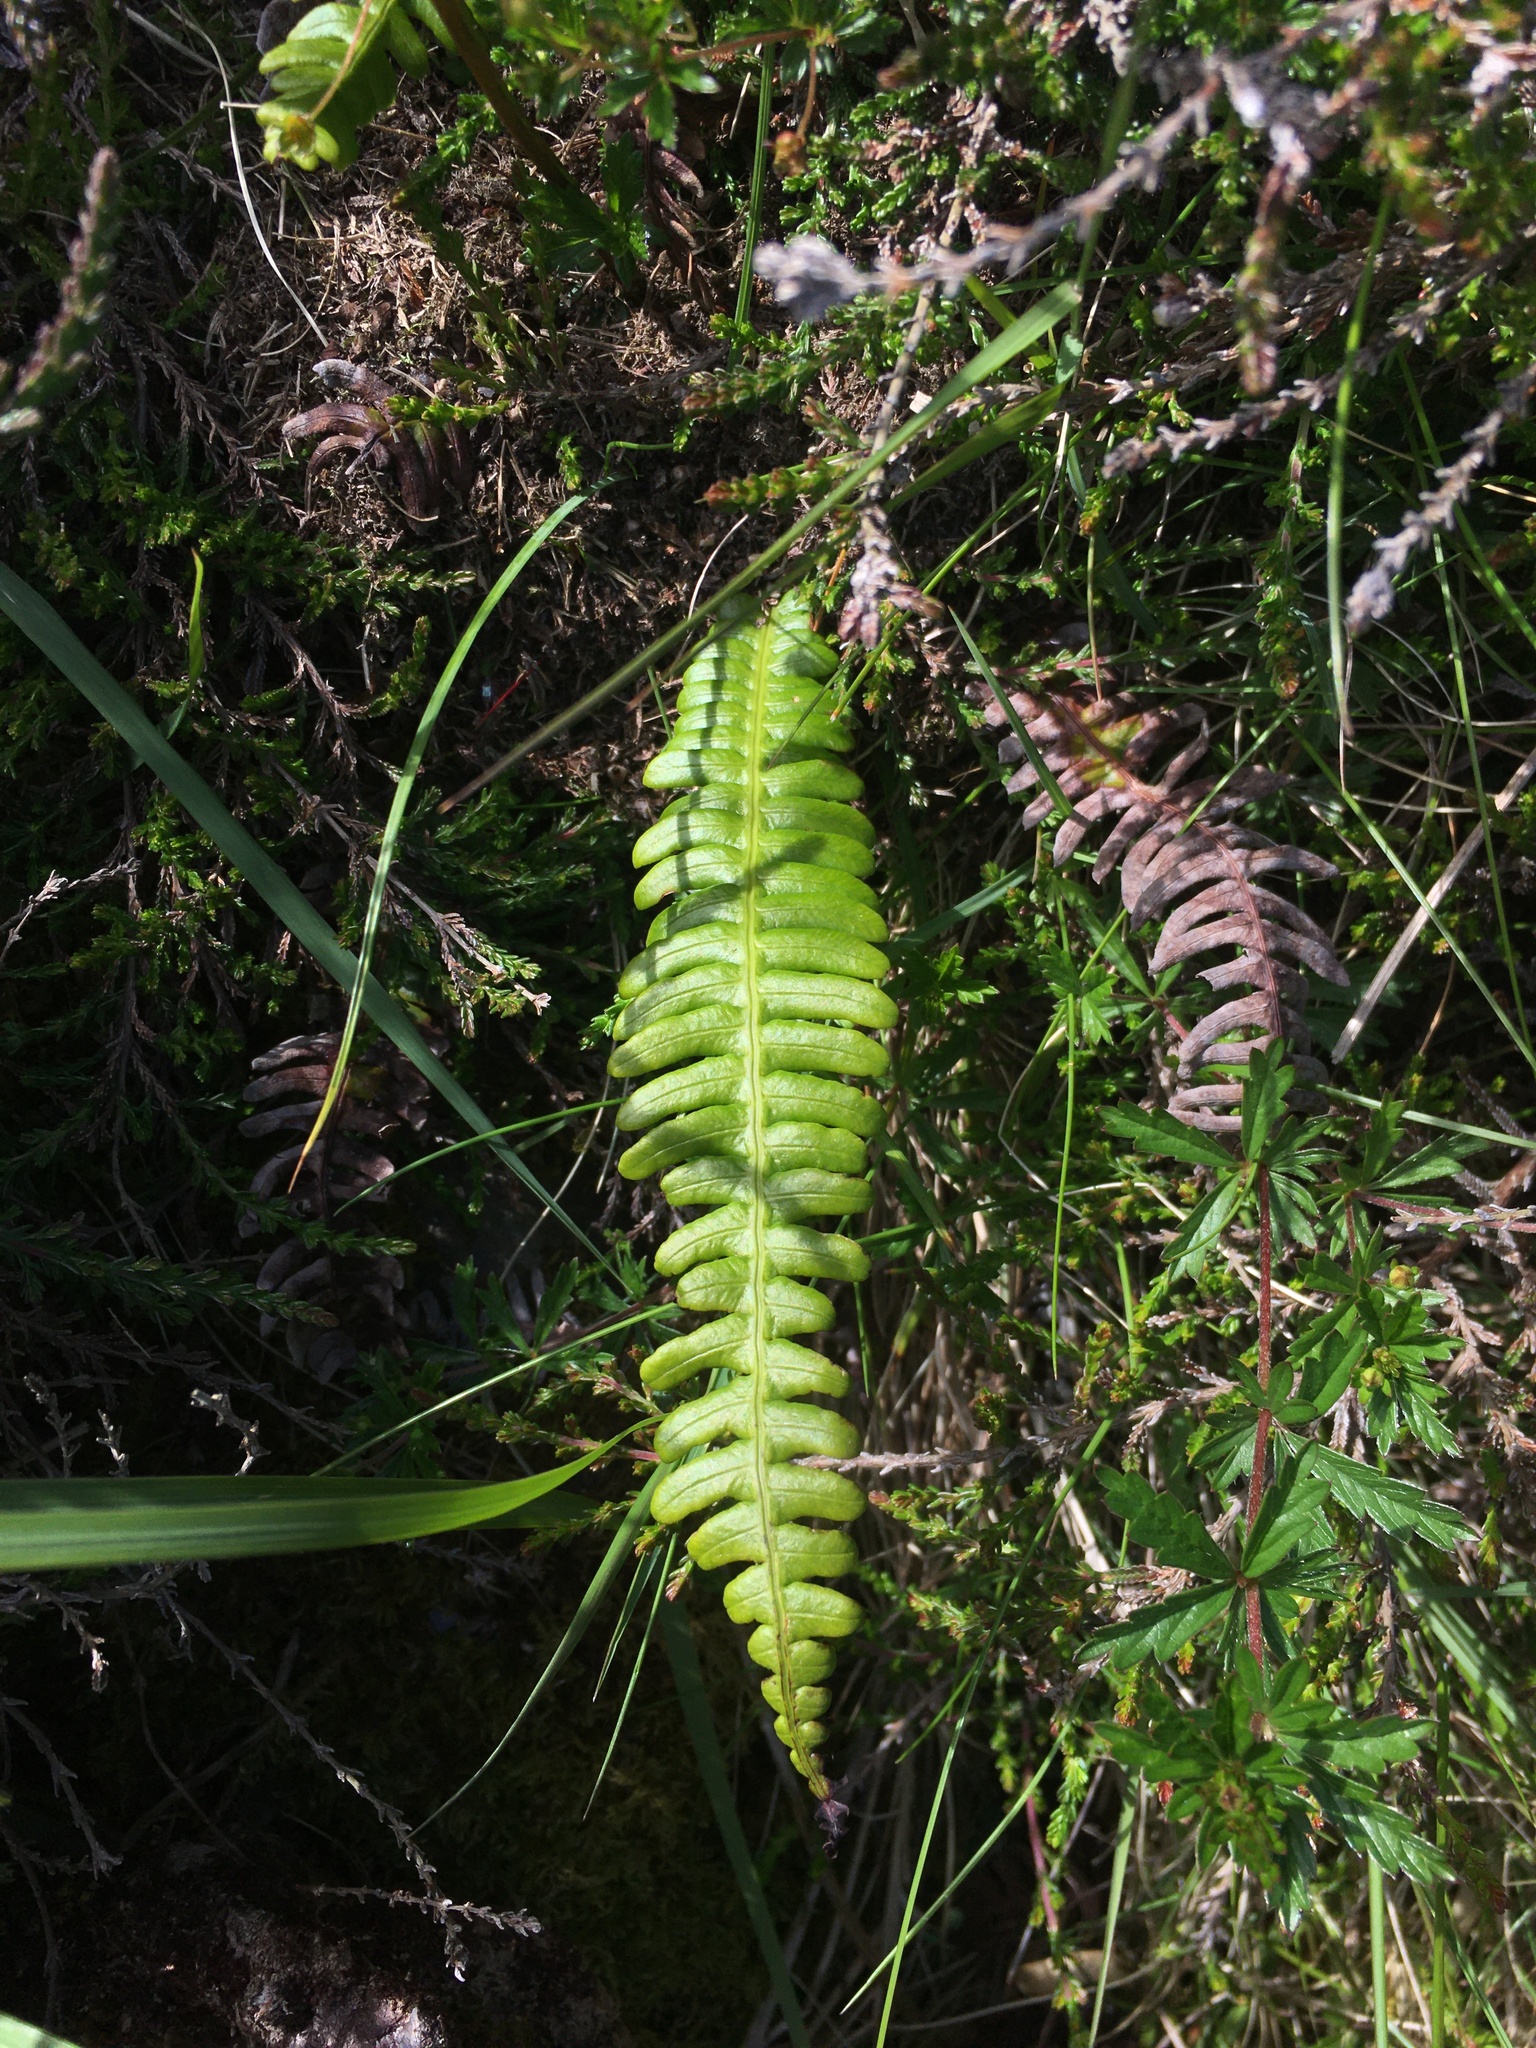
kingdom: Plantae
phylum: Tracheophyta
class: Polypodiopsida
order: Polypodiales
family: Blechnaceae
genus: Struthiopteris
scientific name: Struthiopteris spicant
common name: Deer fern
